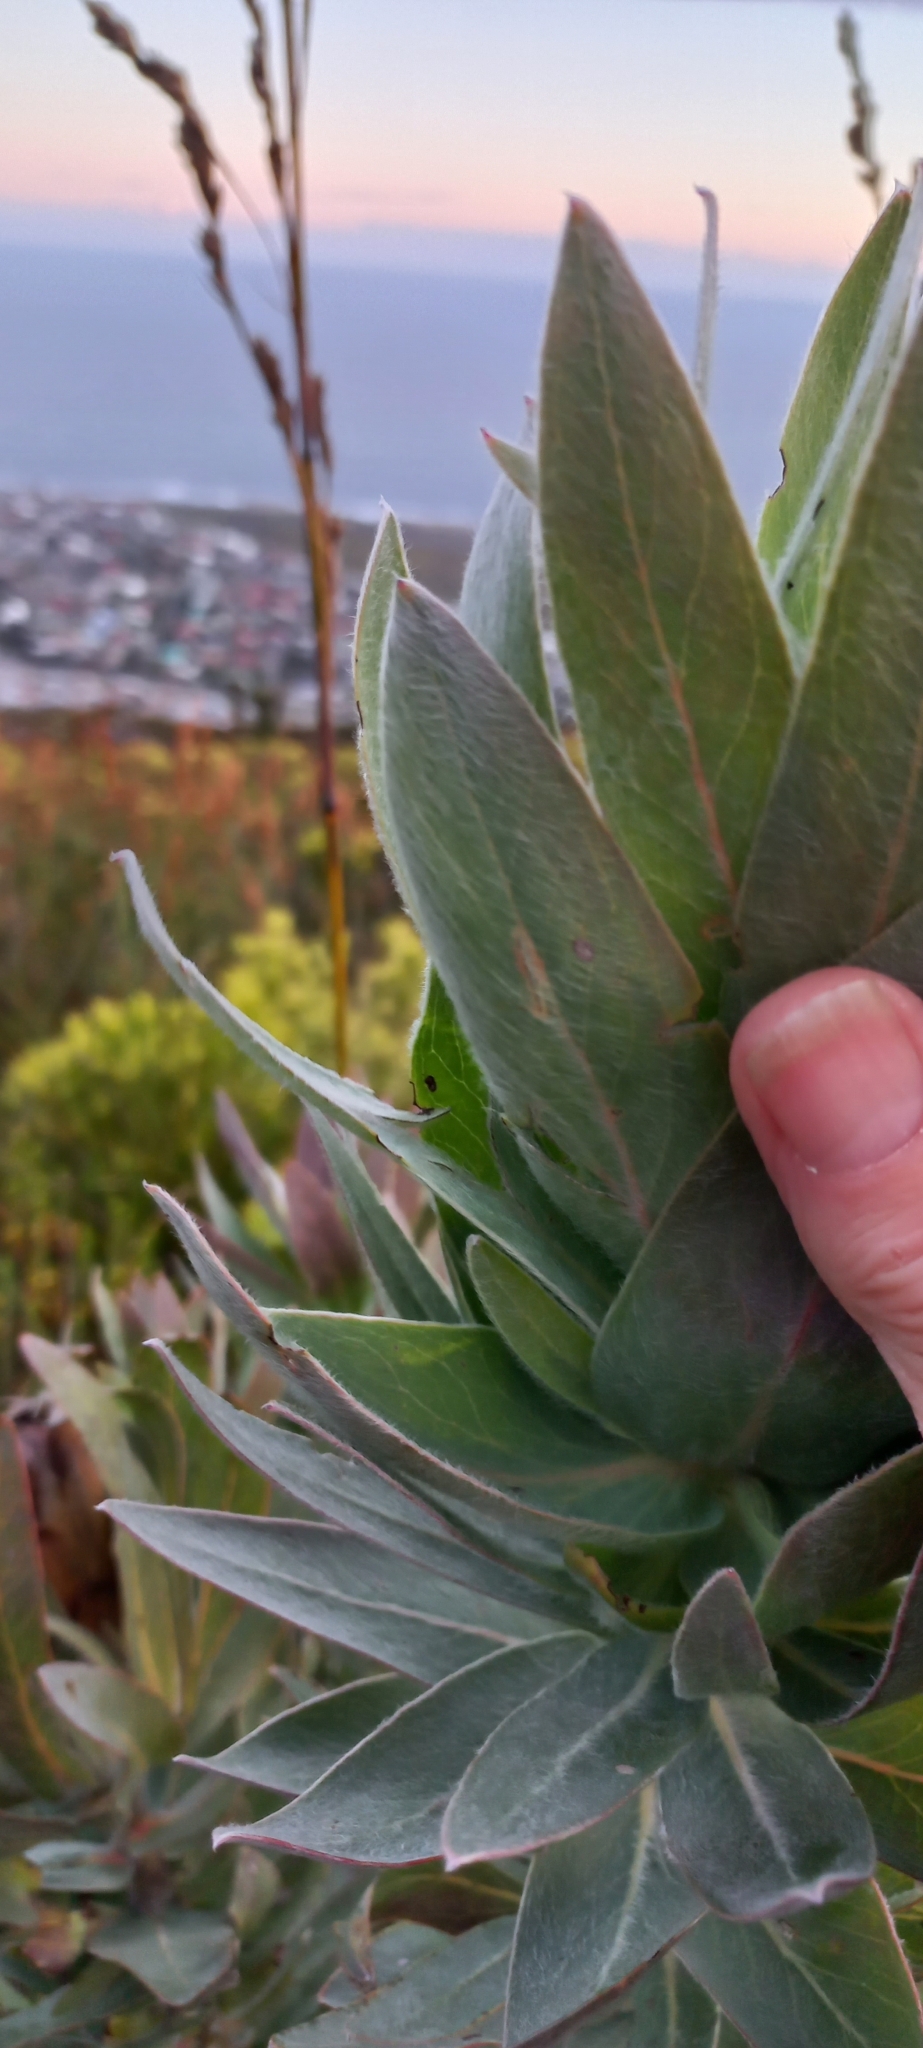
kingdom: Plantae
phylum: Tracheophyta
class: Magnoliopsida
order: Proteales
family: Proteaceae
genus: Protea
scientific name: Protea coronata
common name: Green sugarbush
